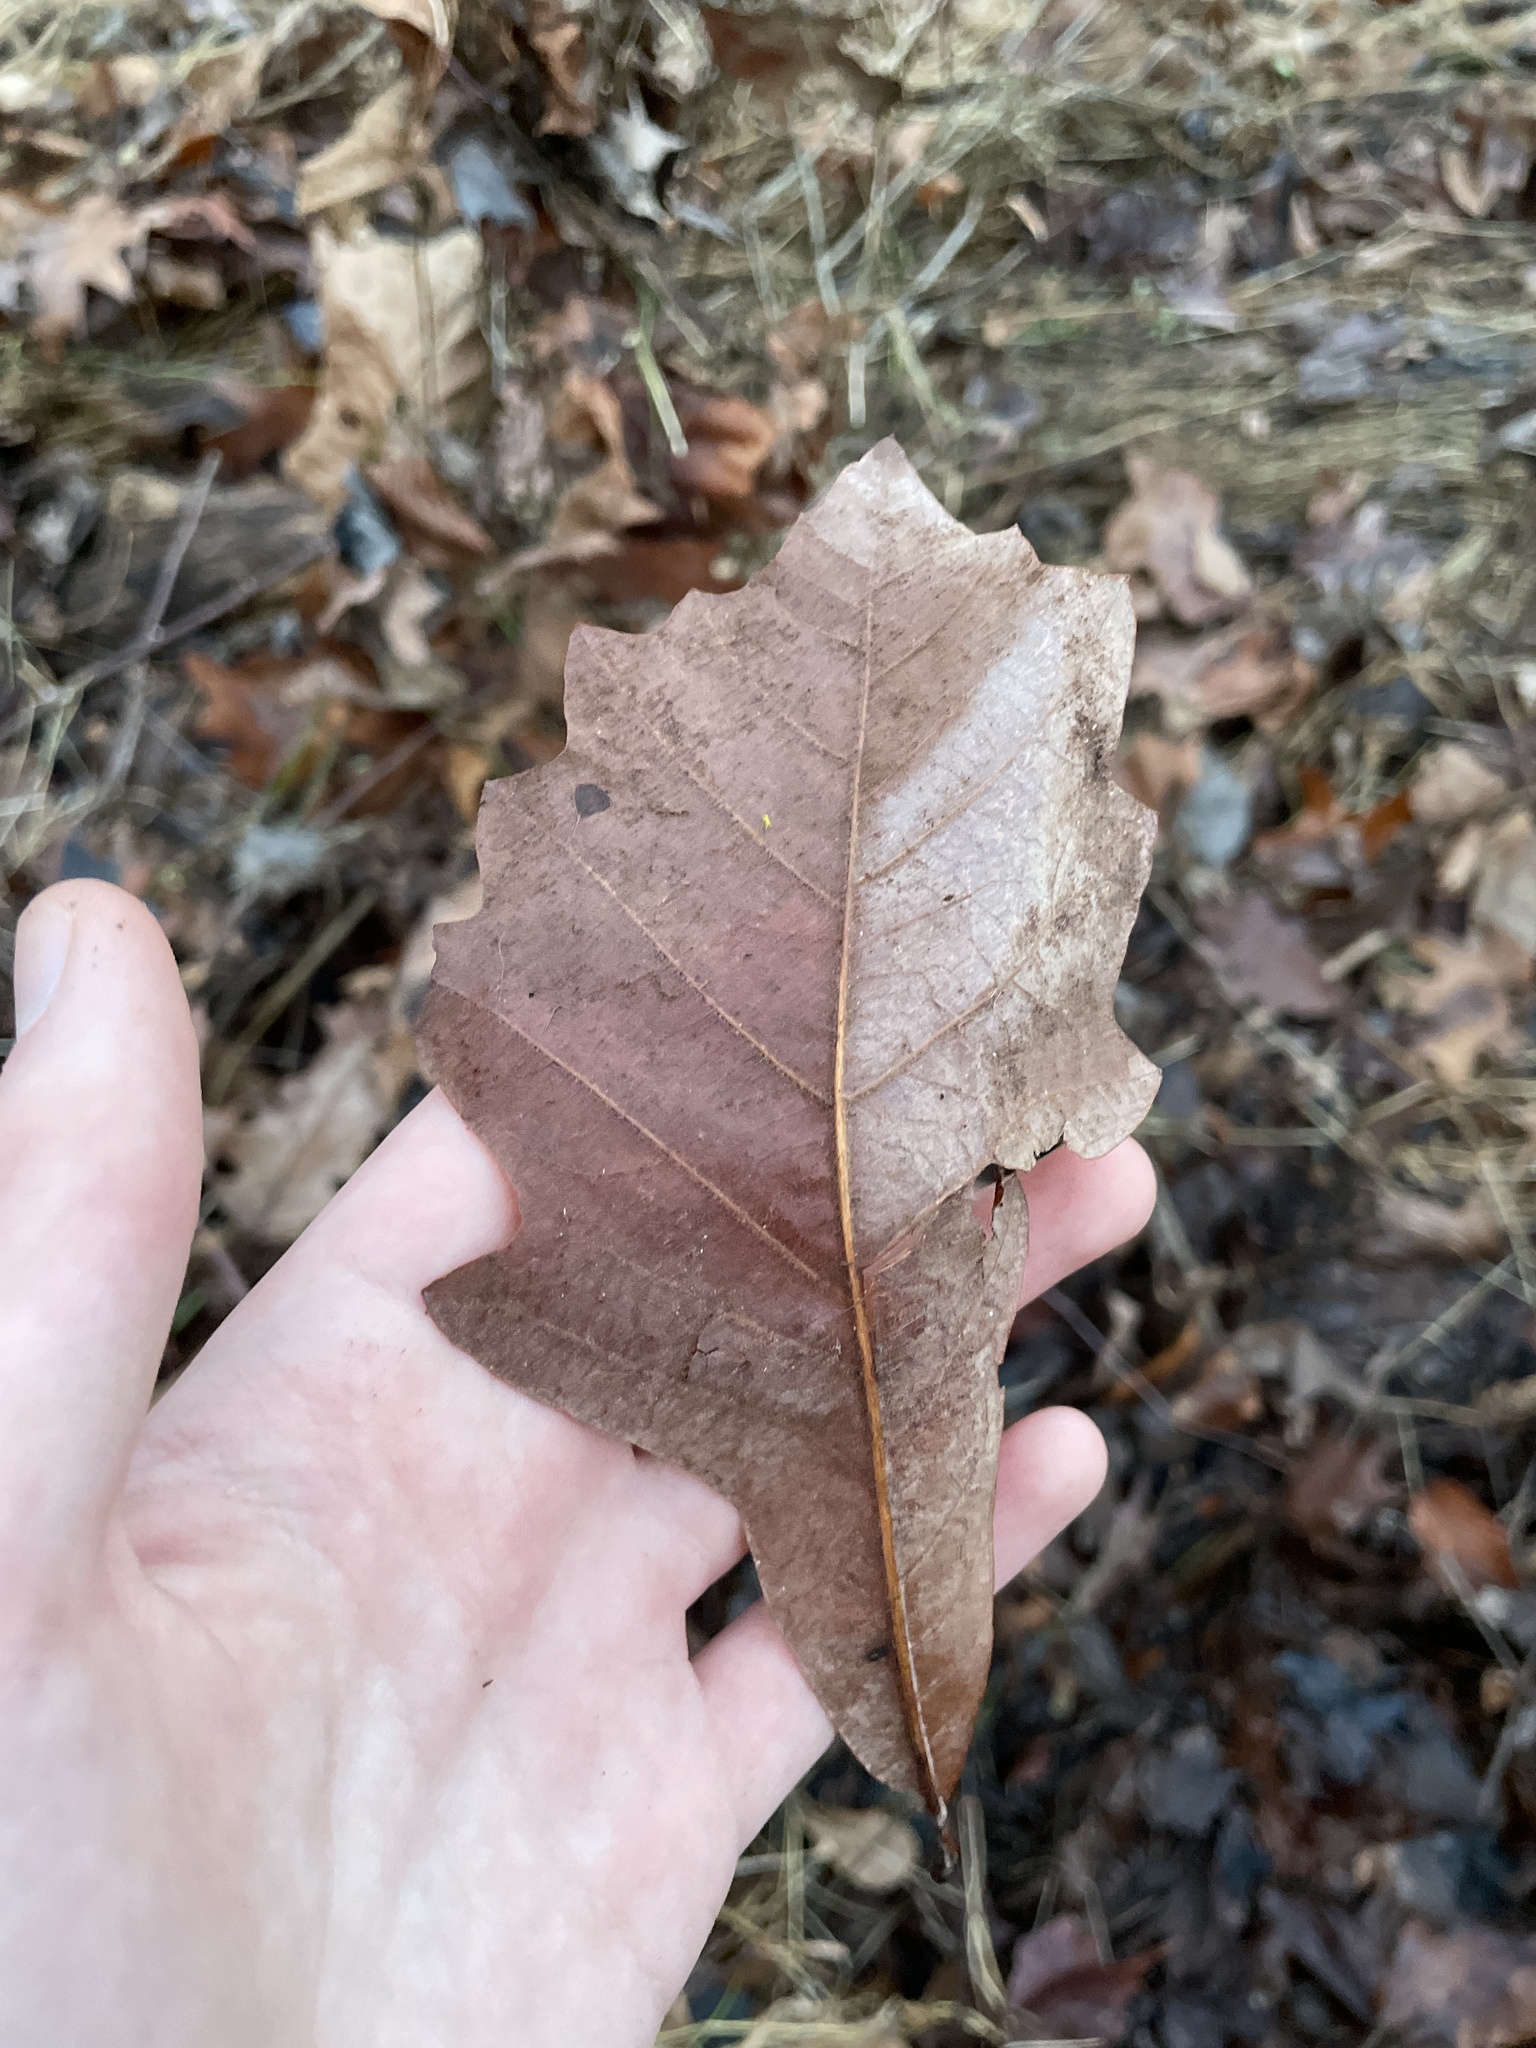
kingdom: Plantae
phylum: Tracheophyta
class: Magnoliopsida
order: Fagales
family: Fagaceae
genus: Quercus
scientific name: Quercus bicolor
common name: Swamp white oak
